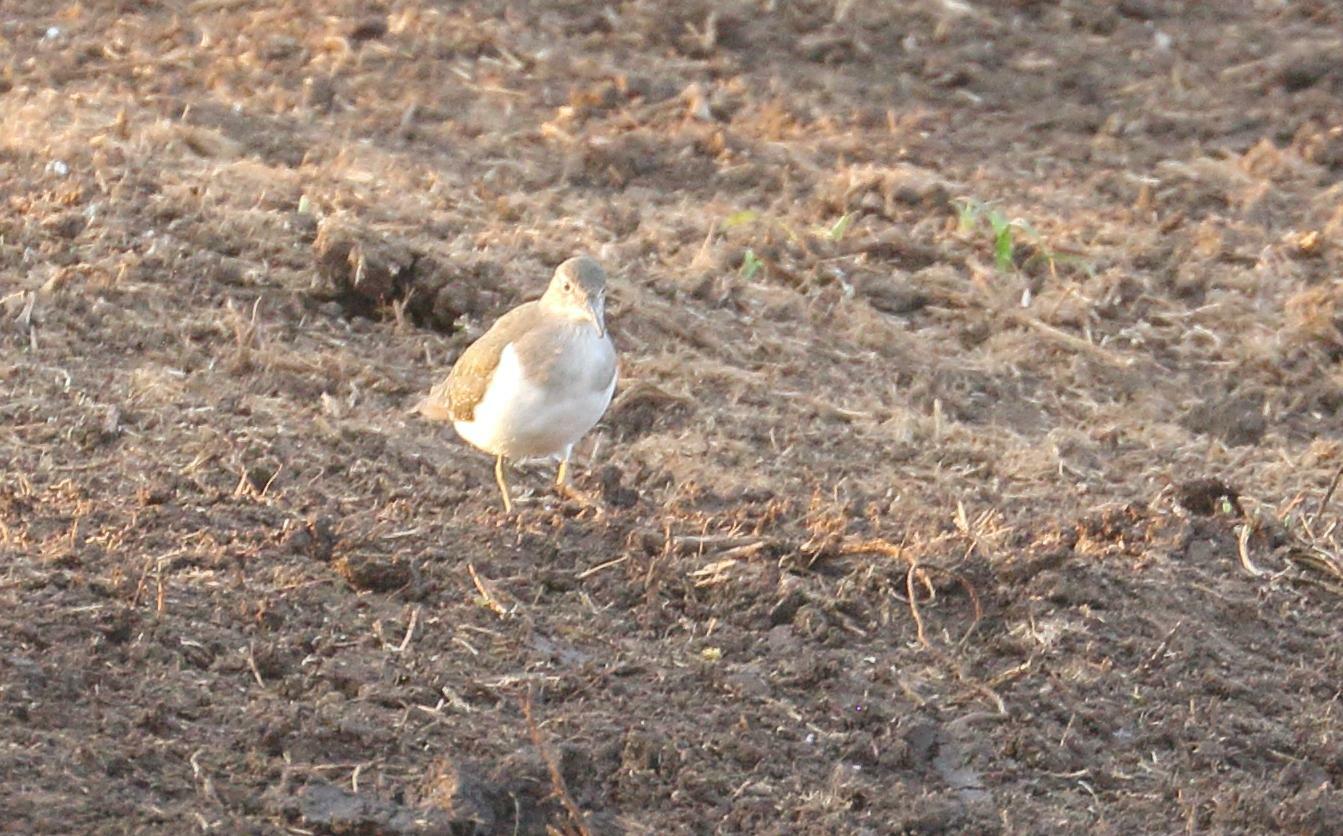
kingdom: Animalia
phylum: Chordata
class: Aves
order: Charadriiformes
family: Scolopacidae
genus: Actitis
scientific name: Actitis hypoleucos
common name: Common sandpiper
